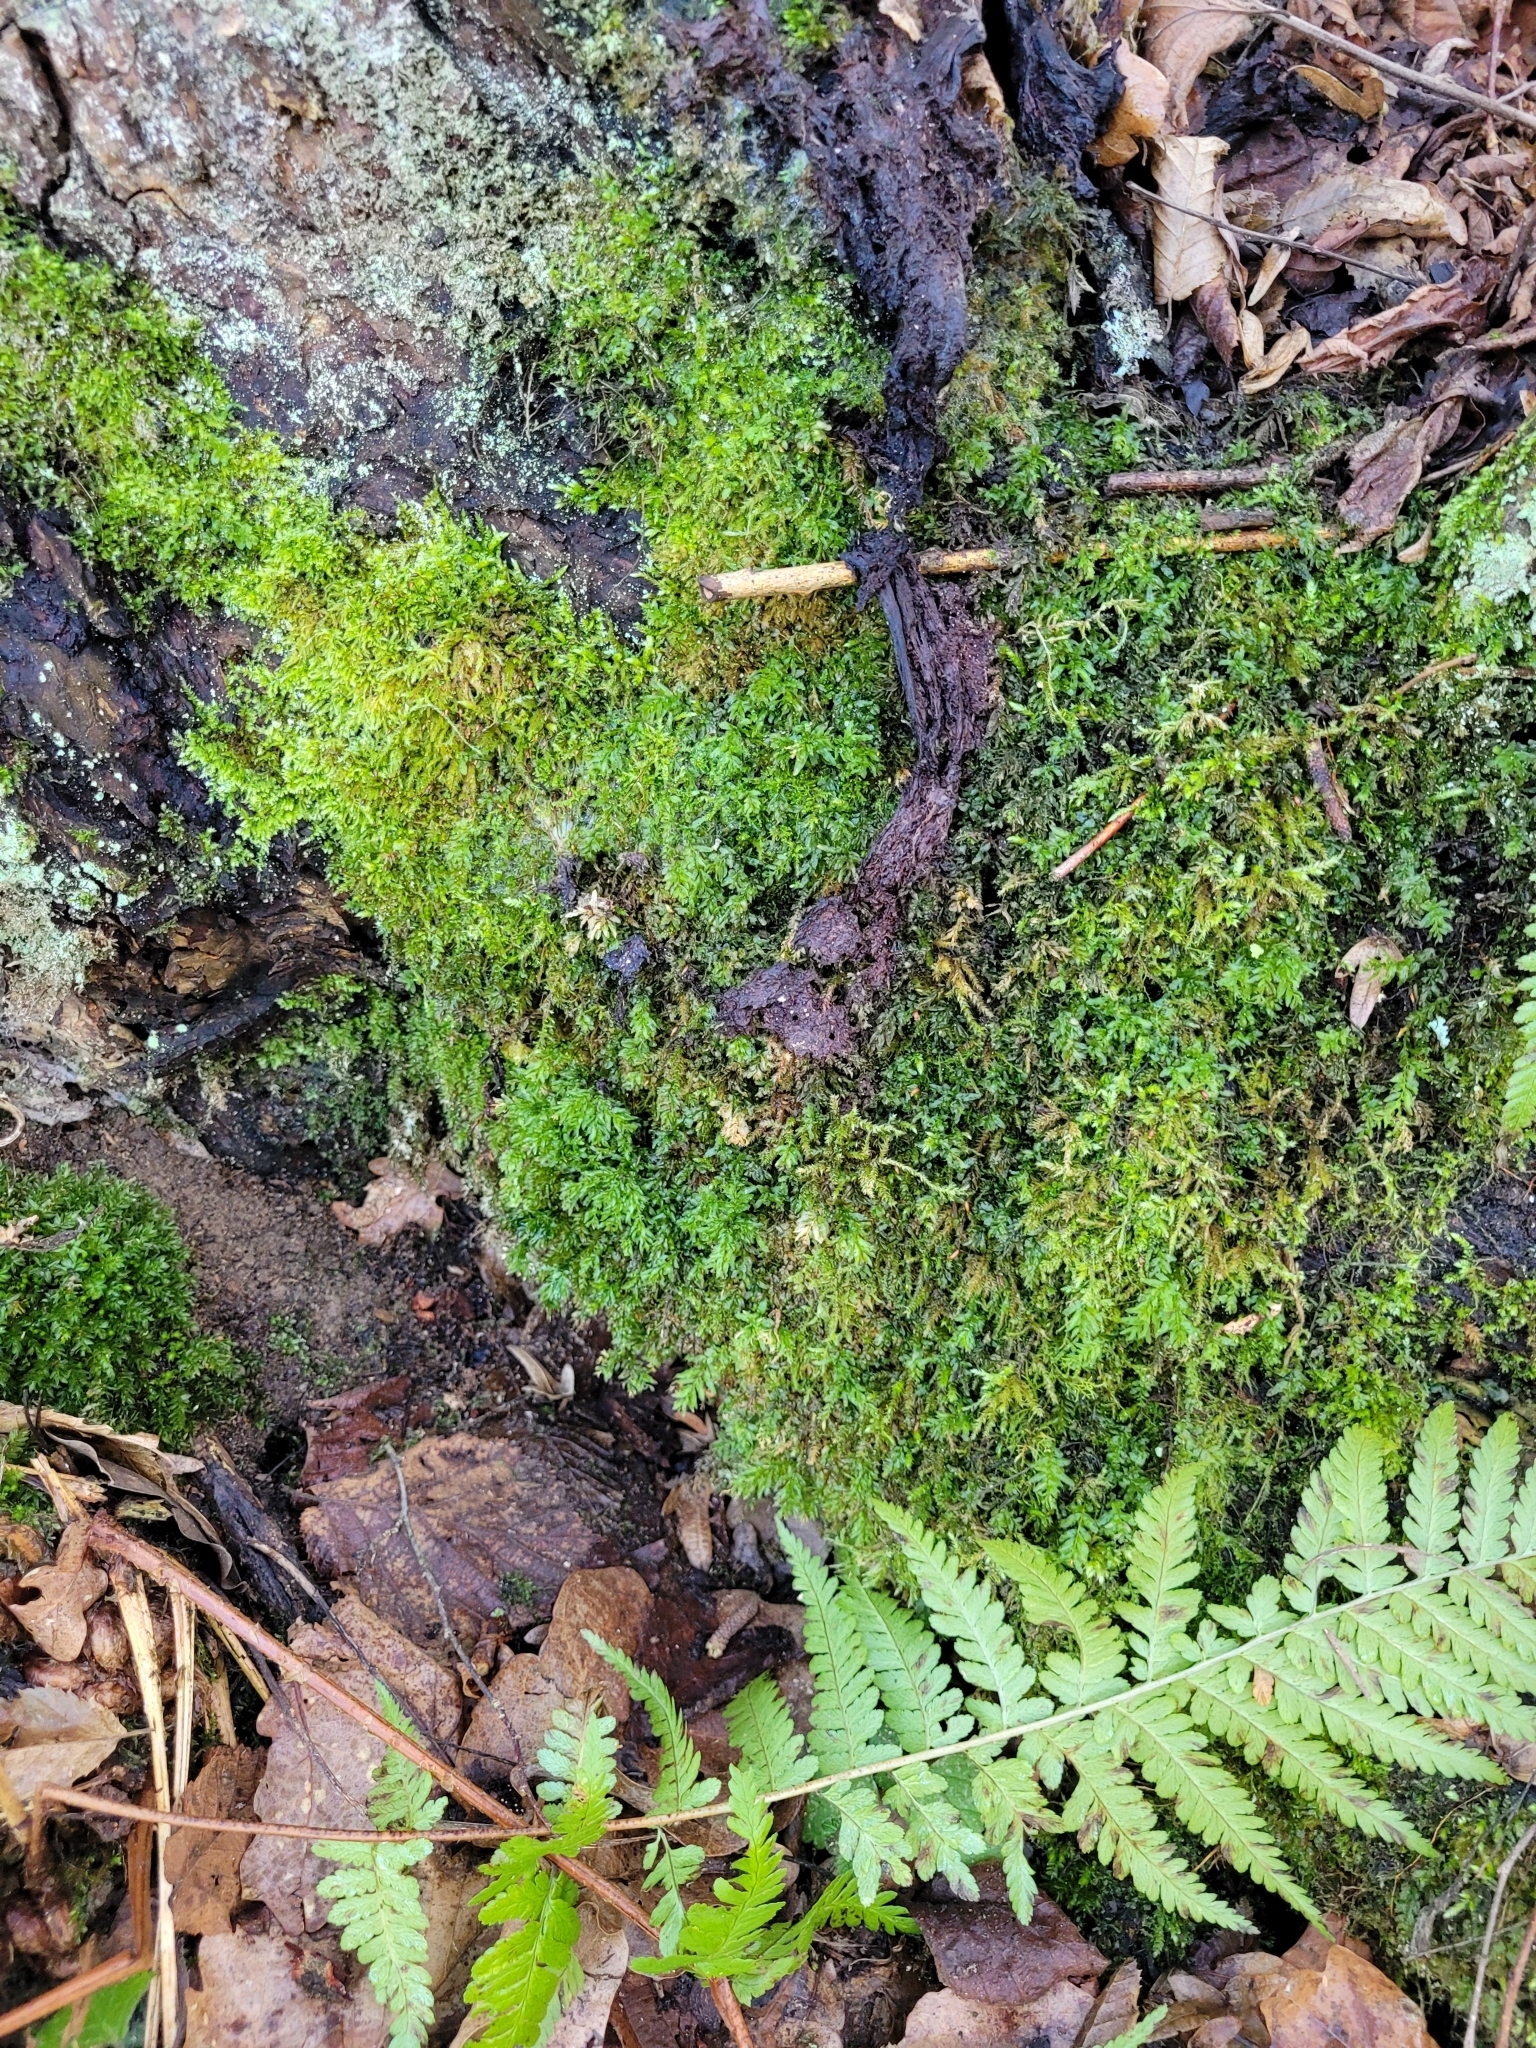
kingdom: Plantae
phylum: Bryophyta
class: Bryopsida
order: Bryales
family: Mniaceae
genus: Plagiomnium
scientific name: Plagiomnium undulatum
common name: Hart's-tongue thyme-moss
